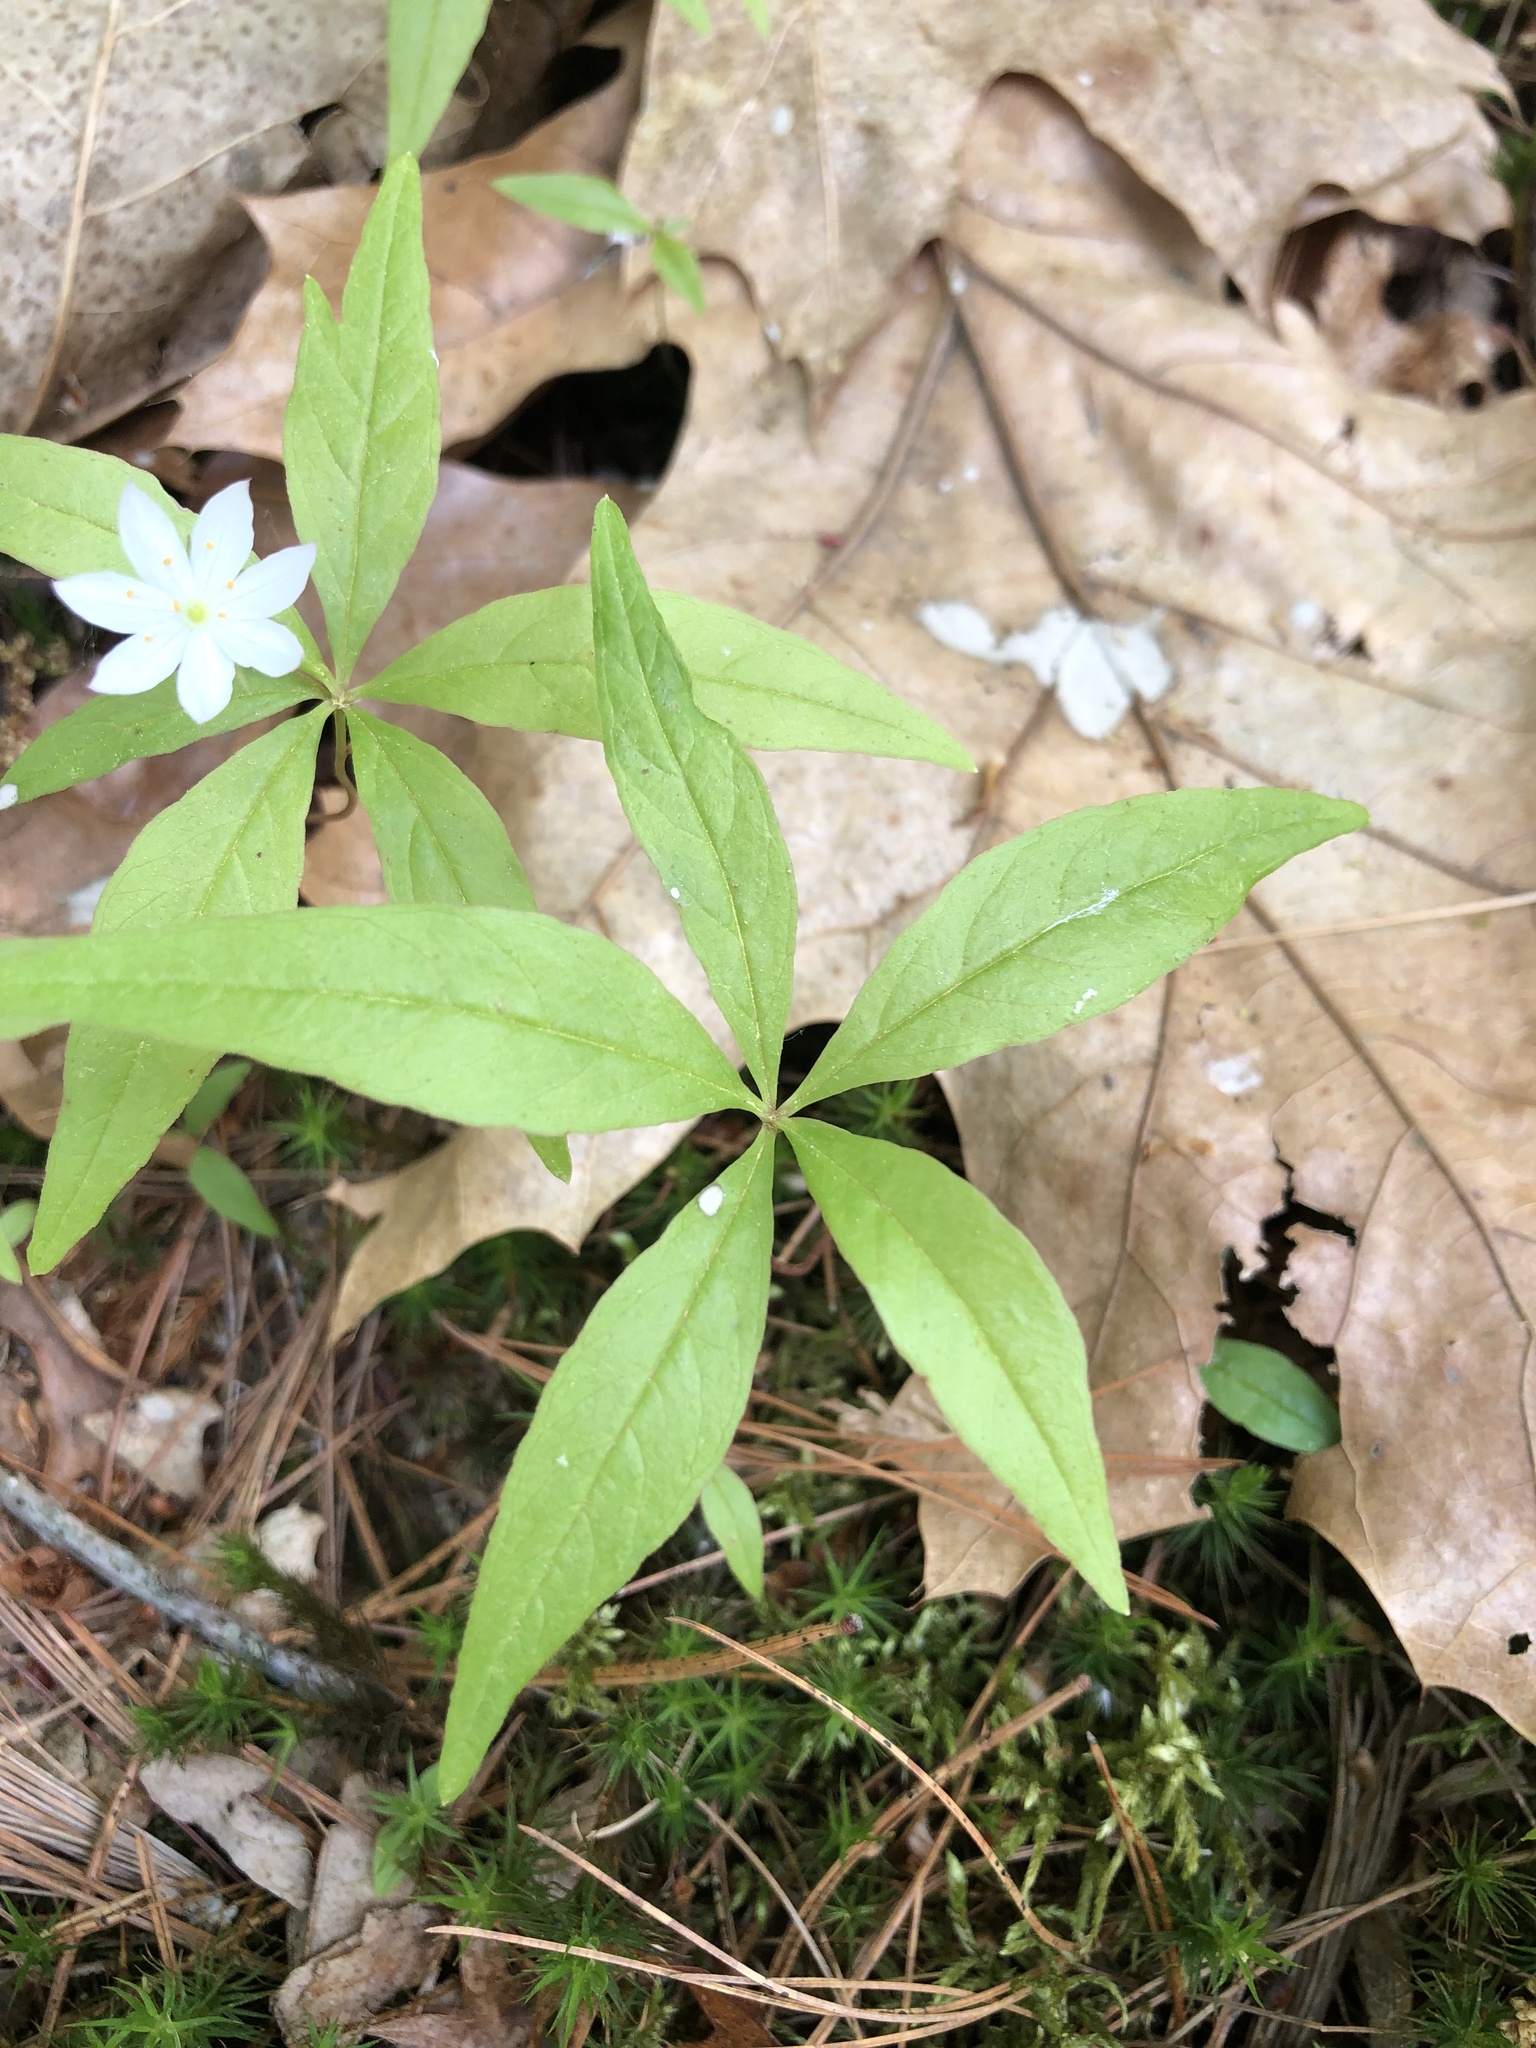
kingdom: Plantae
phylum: Tracheophyta
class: Magnoliopsida
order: Ericales
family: Primulaceae
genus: Lysimachia
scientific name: Lysimachia borealis
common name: American starflower
